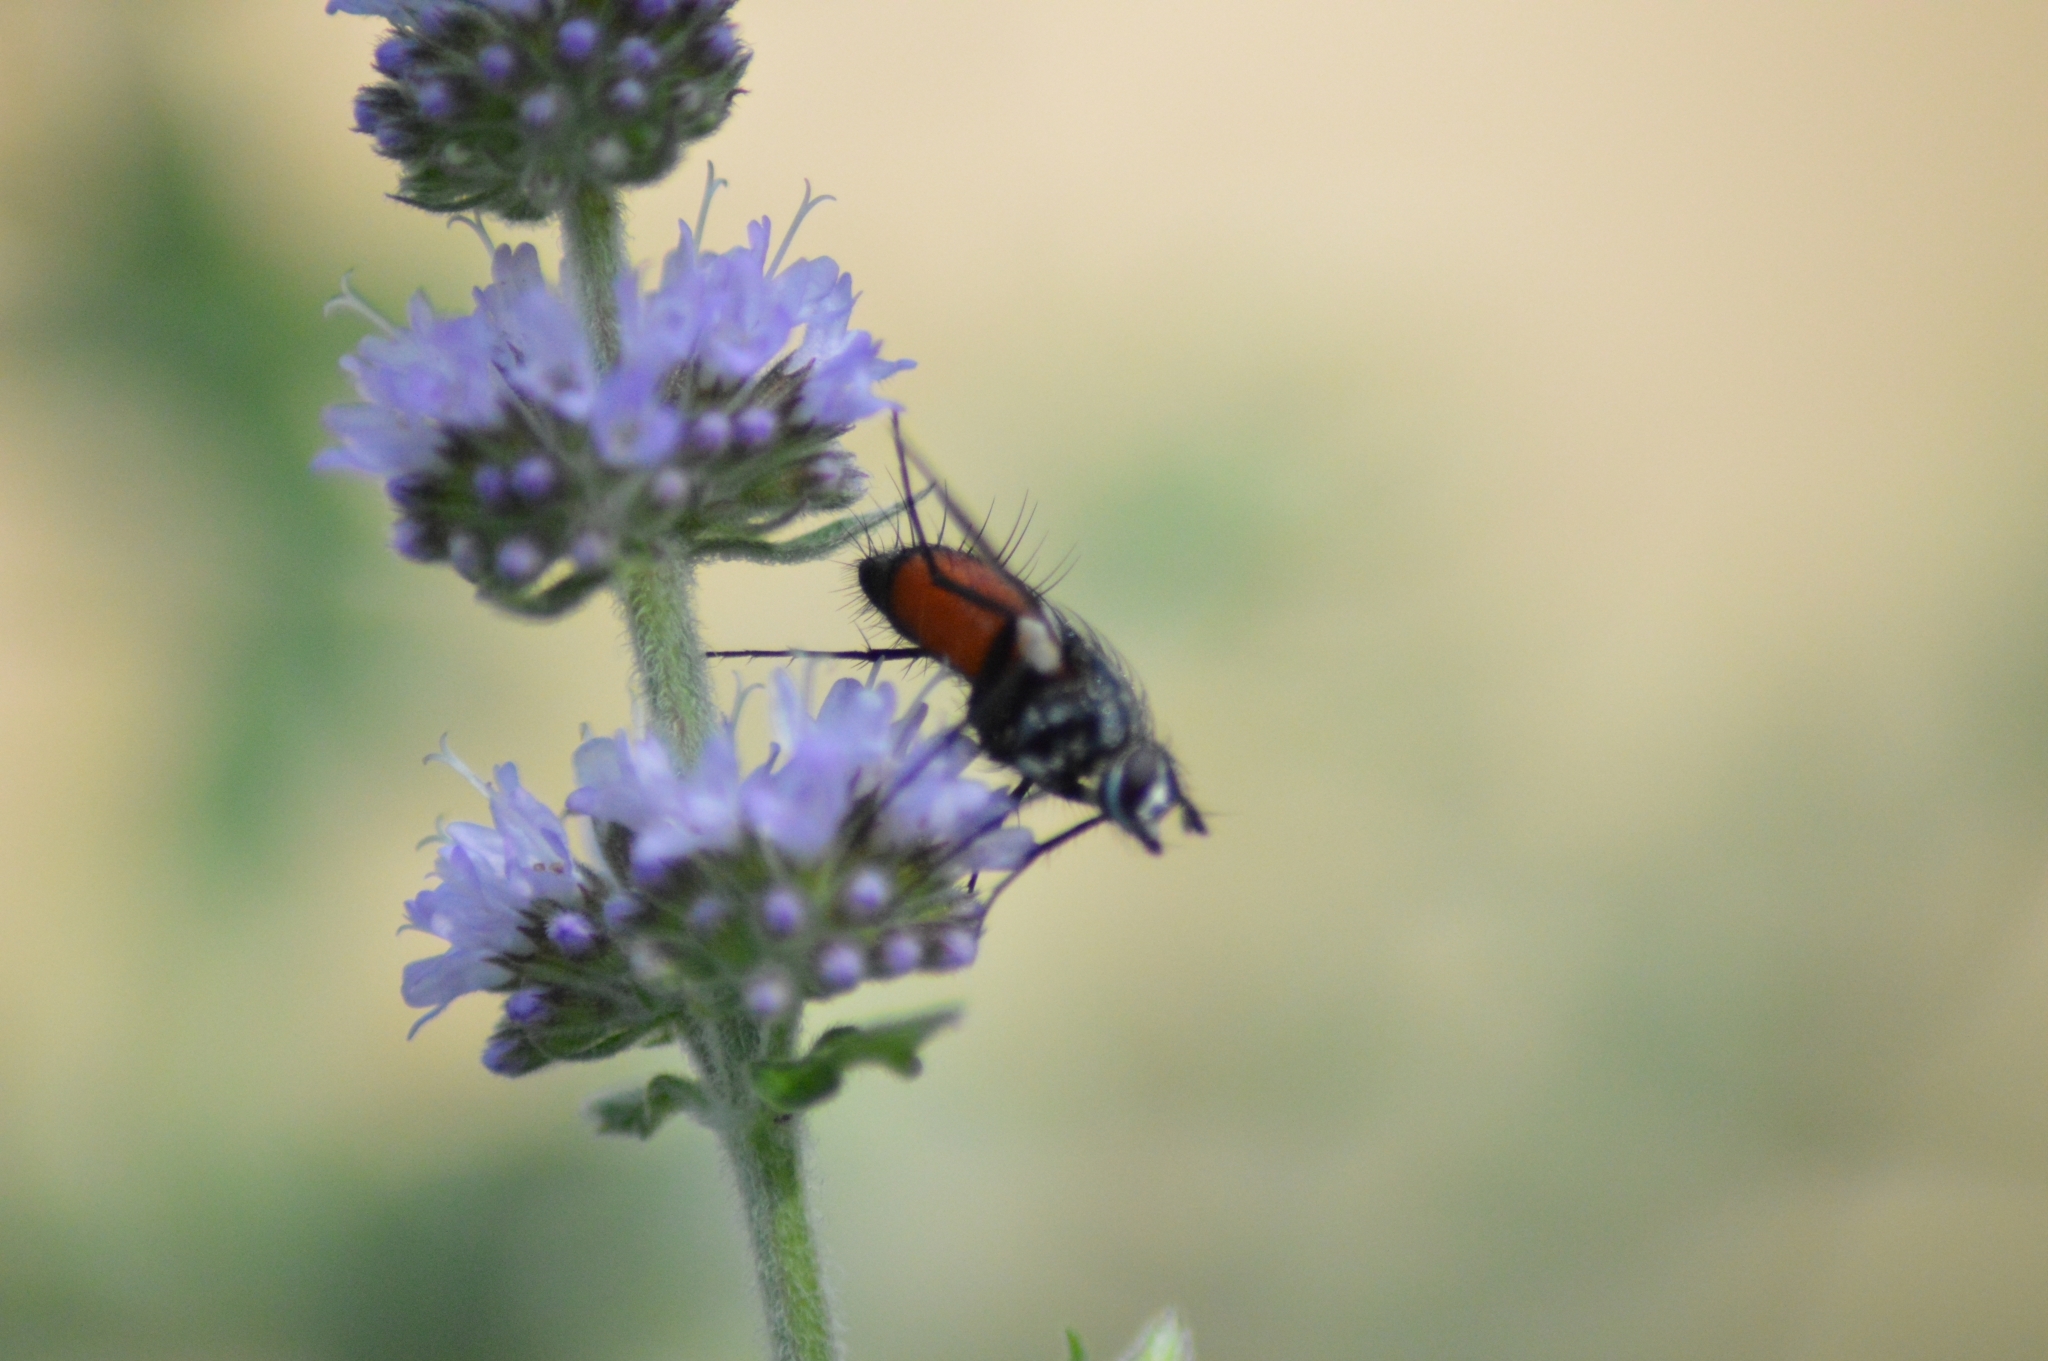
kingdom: Animalia
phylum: Arthropoda
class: Insecta
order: Diptera
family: Tachinidae
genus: Eriothrix
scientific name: Eriothrix rufomaculatus
